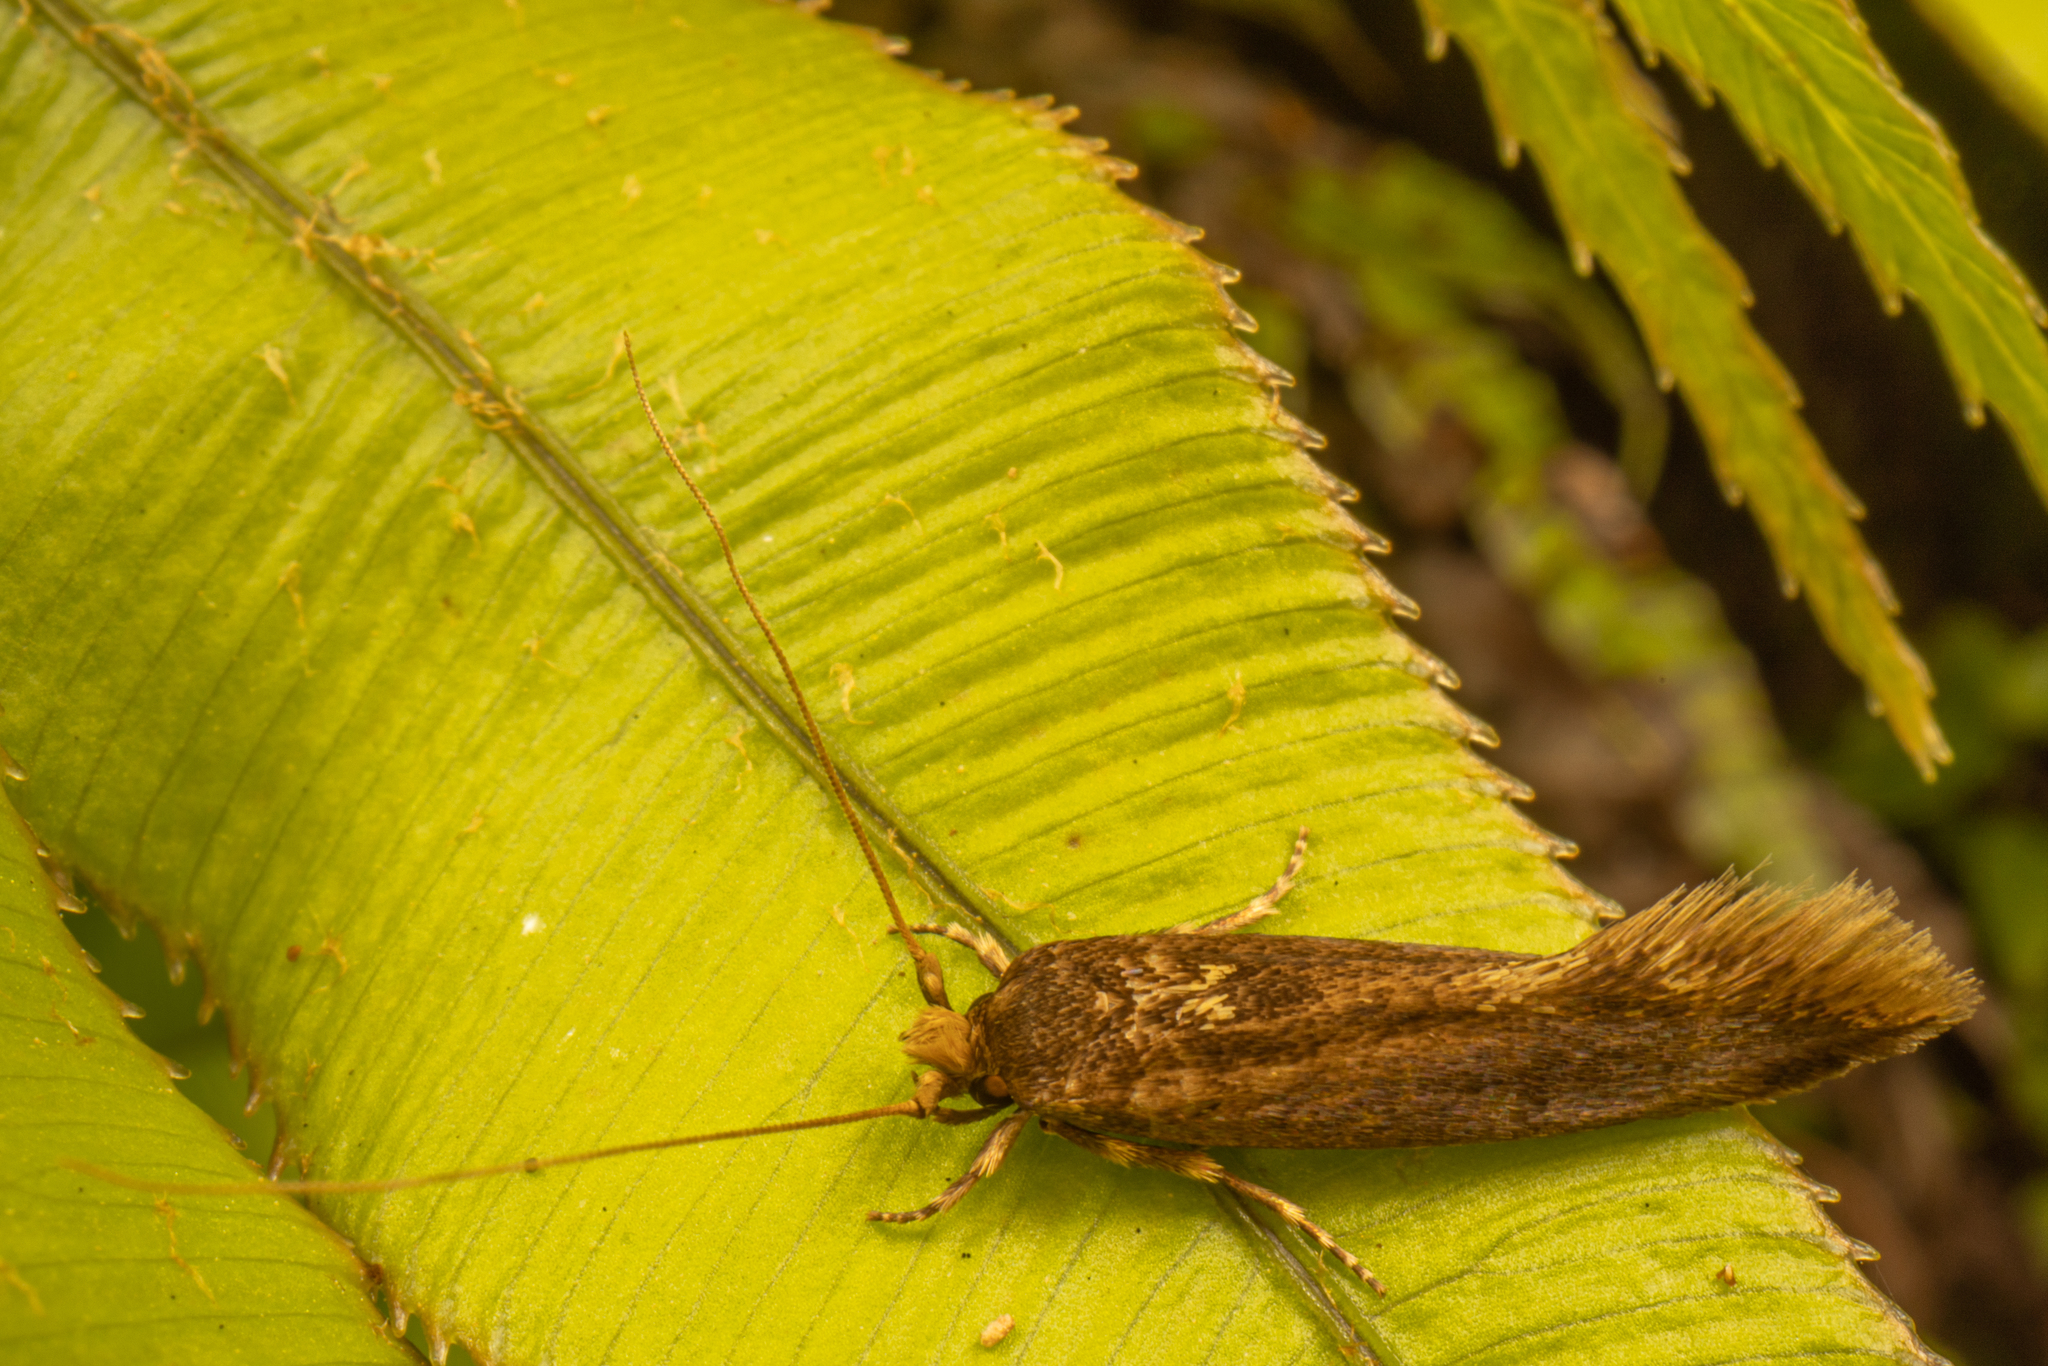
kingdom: Animalia
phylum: Arthropoda
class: Insecta
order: Lepidoptera
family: Tineidae
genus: Opogona
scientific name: Opogona omoscopa
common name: Moth
